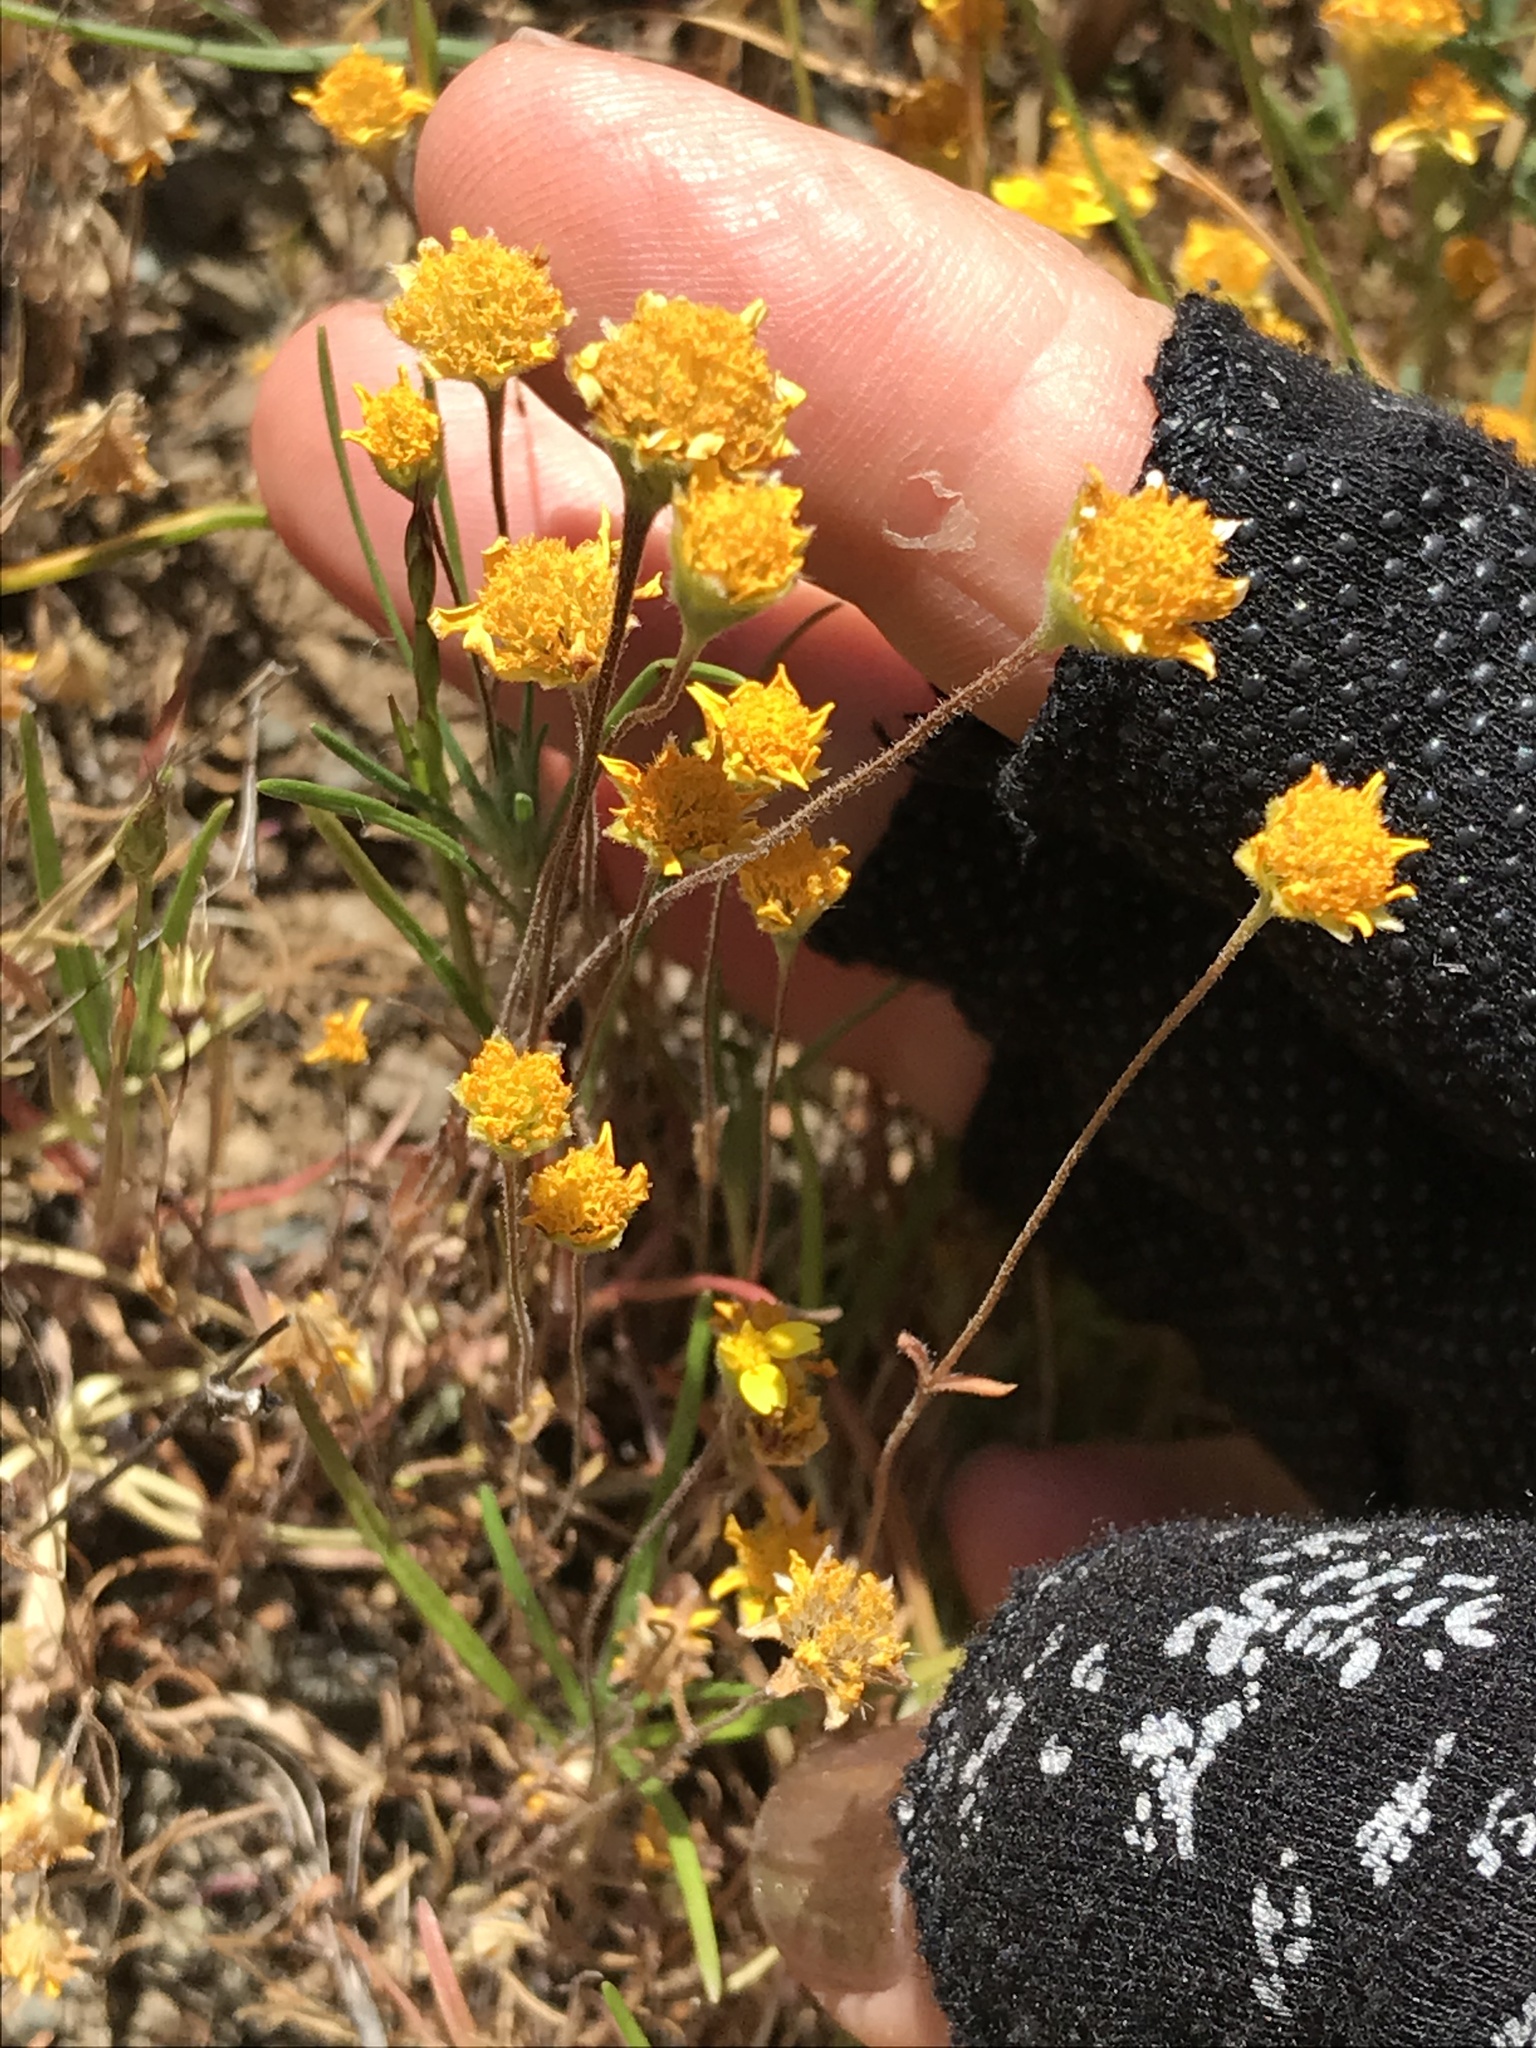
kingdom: Plantae
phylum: Tracheophyta
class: Magnoliopsida
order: Asterales
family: Asteraceae
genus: Lasthenia
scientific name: Lasthenia californica
